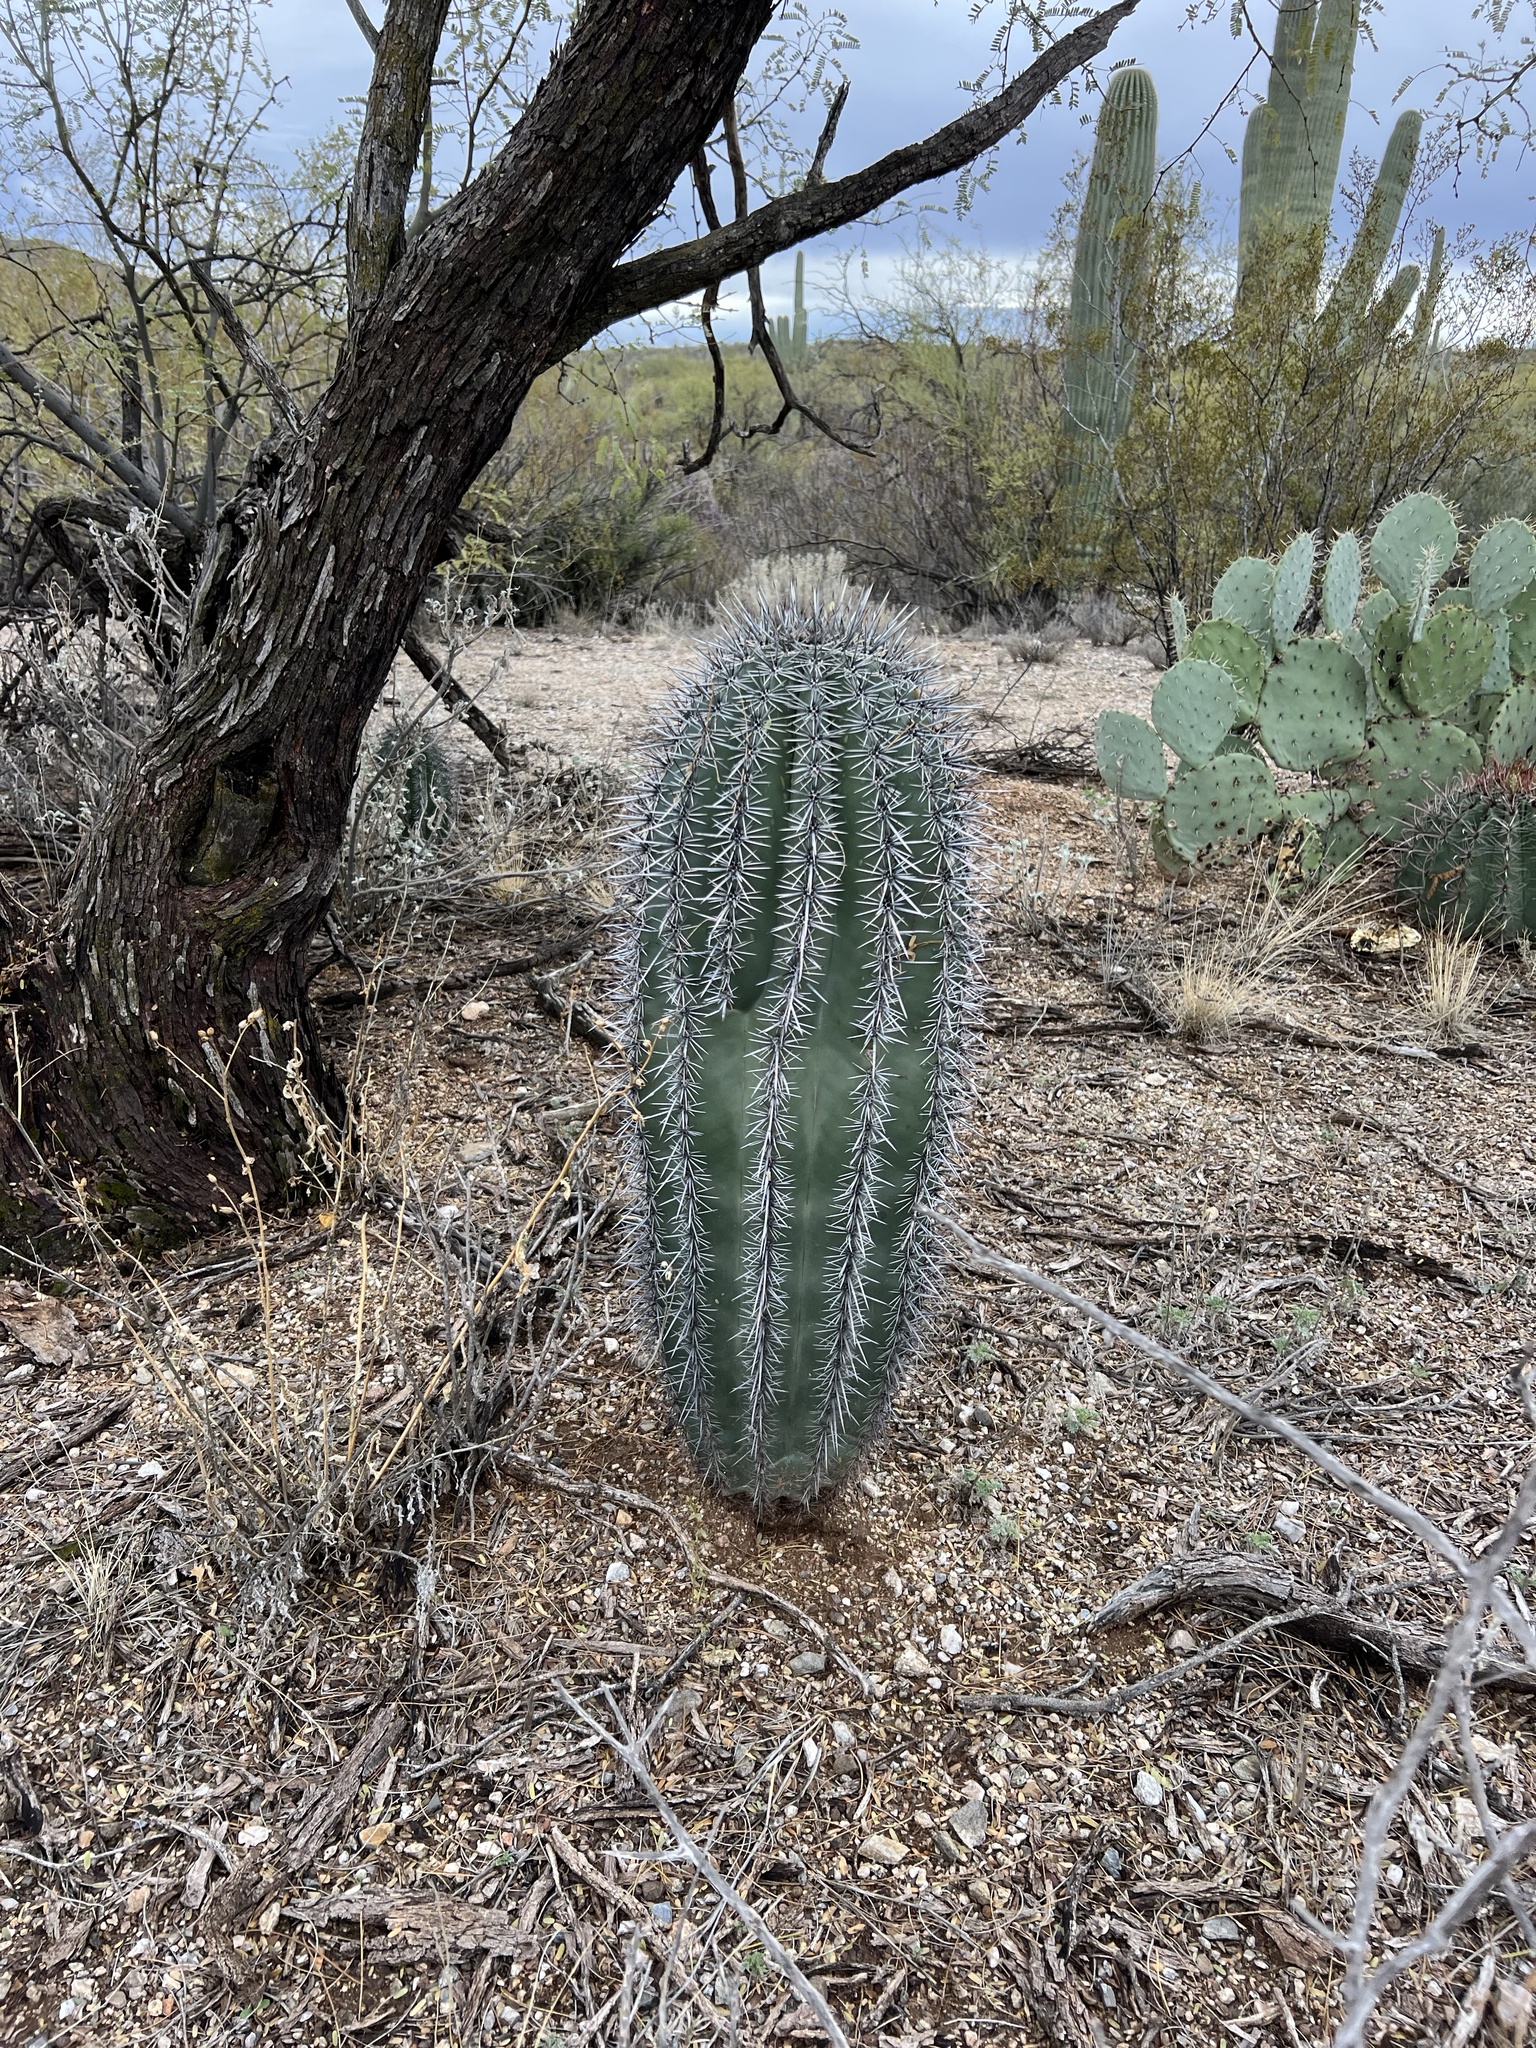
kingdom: Plantae
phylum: Tracheophyta
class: Magnoliopsida
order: Caryophyllales
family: Cactaceae
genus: Carnegiea
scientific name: Carnegiea gigantea
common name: Saguaro
